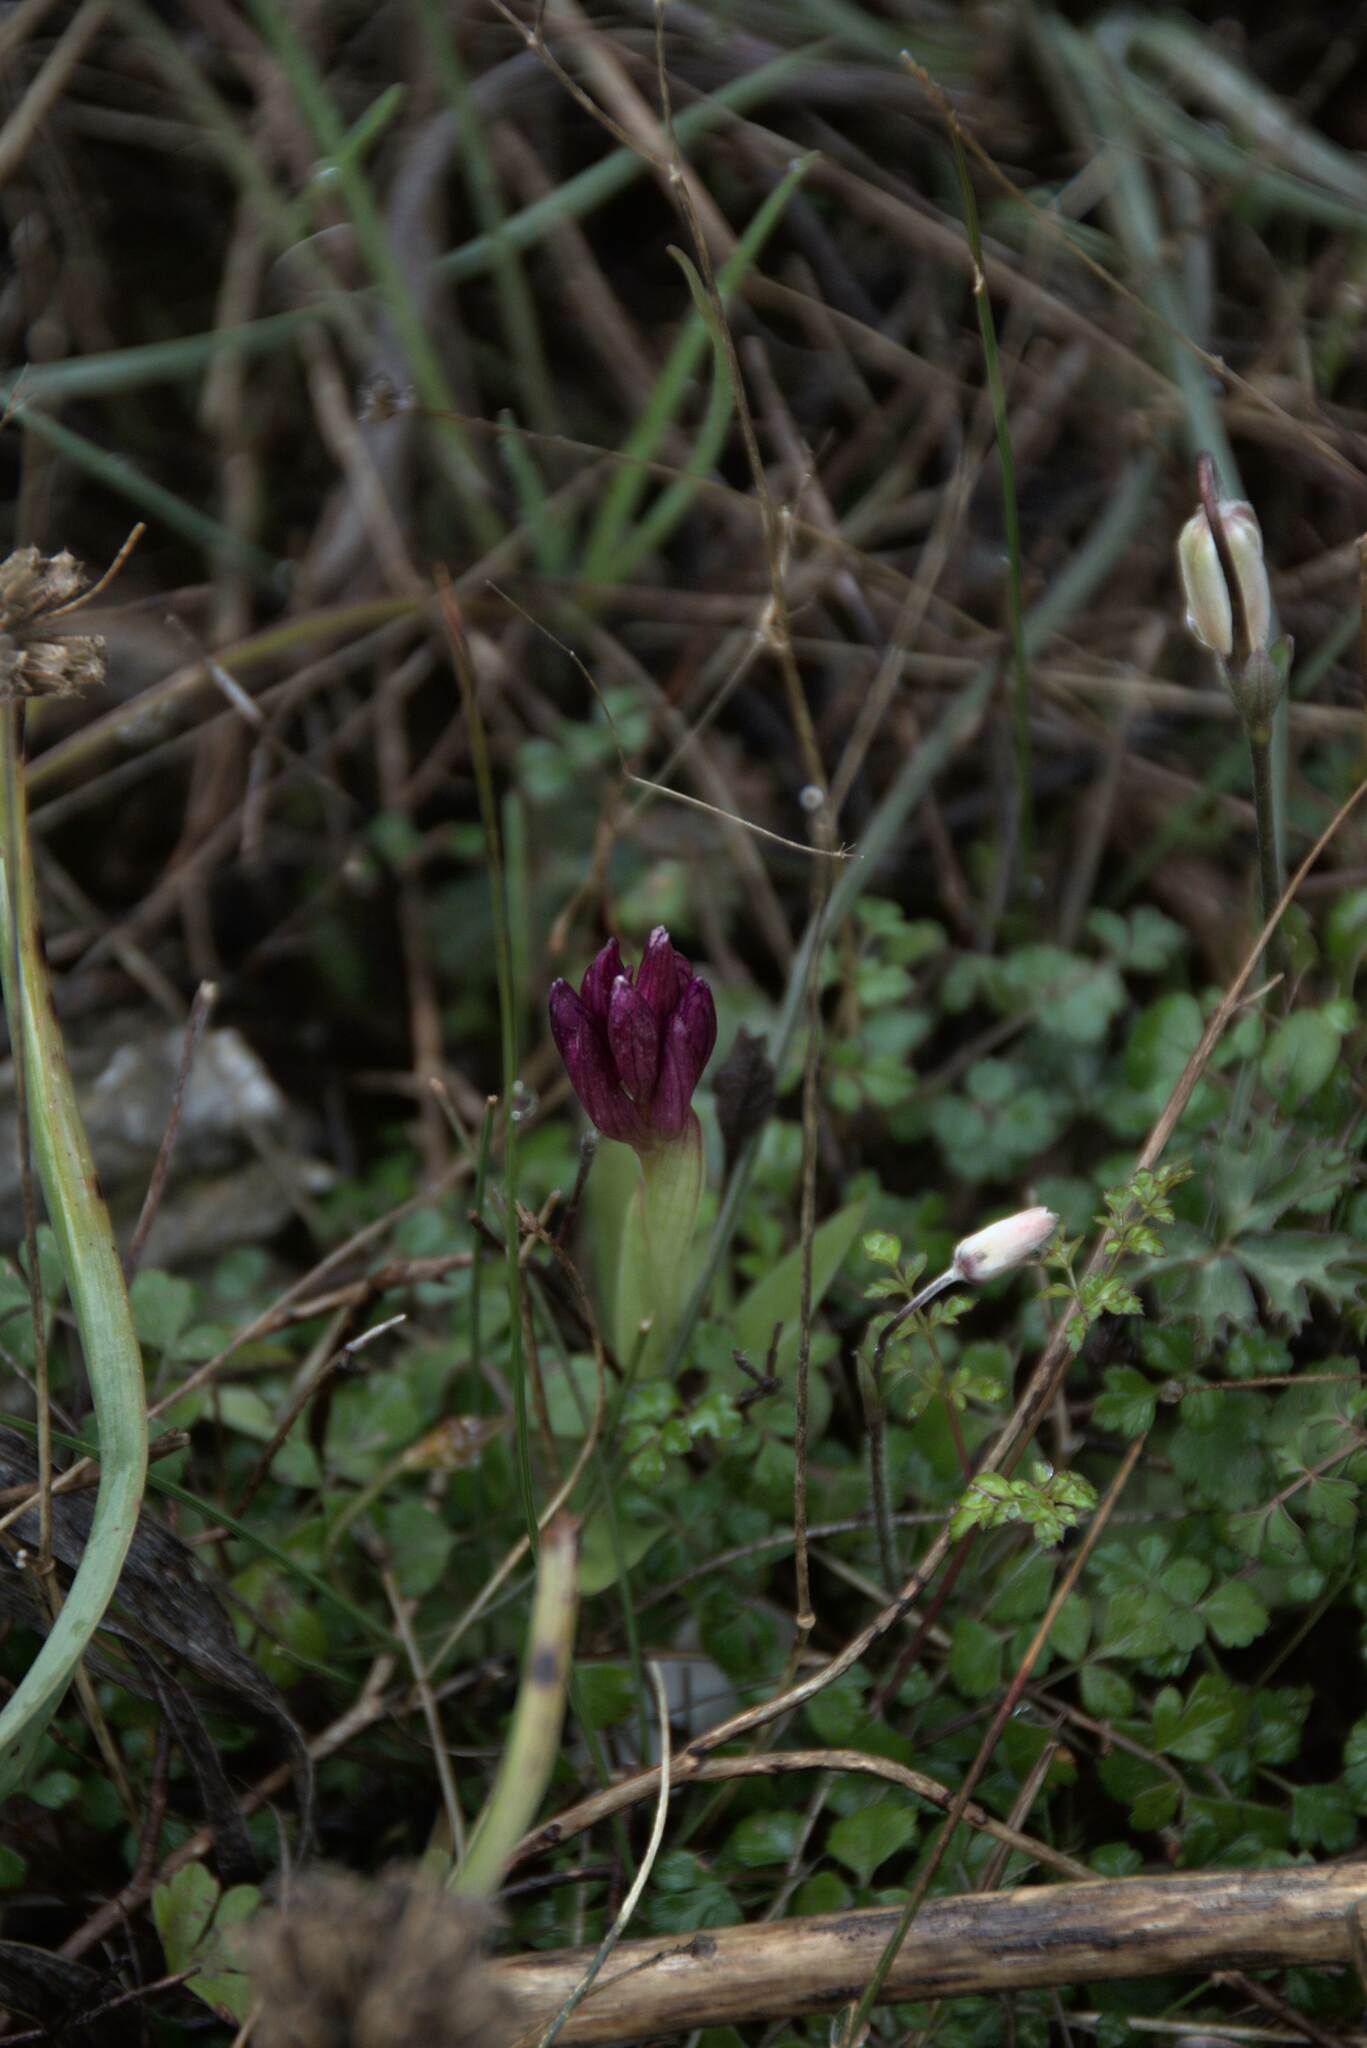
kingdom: Plantae
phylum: Tracheophyta
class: Liliopsida
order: Asparagales
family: Orchidaceae
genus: Anacamptis
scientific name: Anacamptis papilionacea
